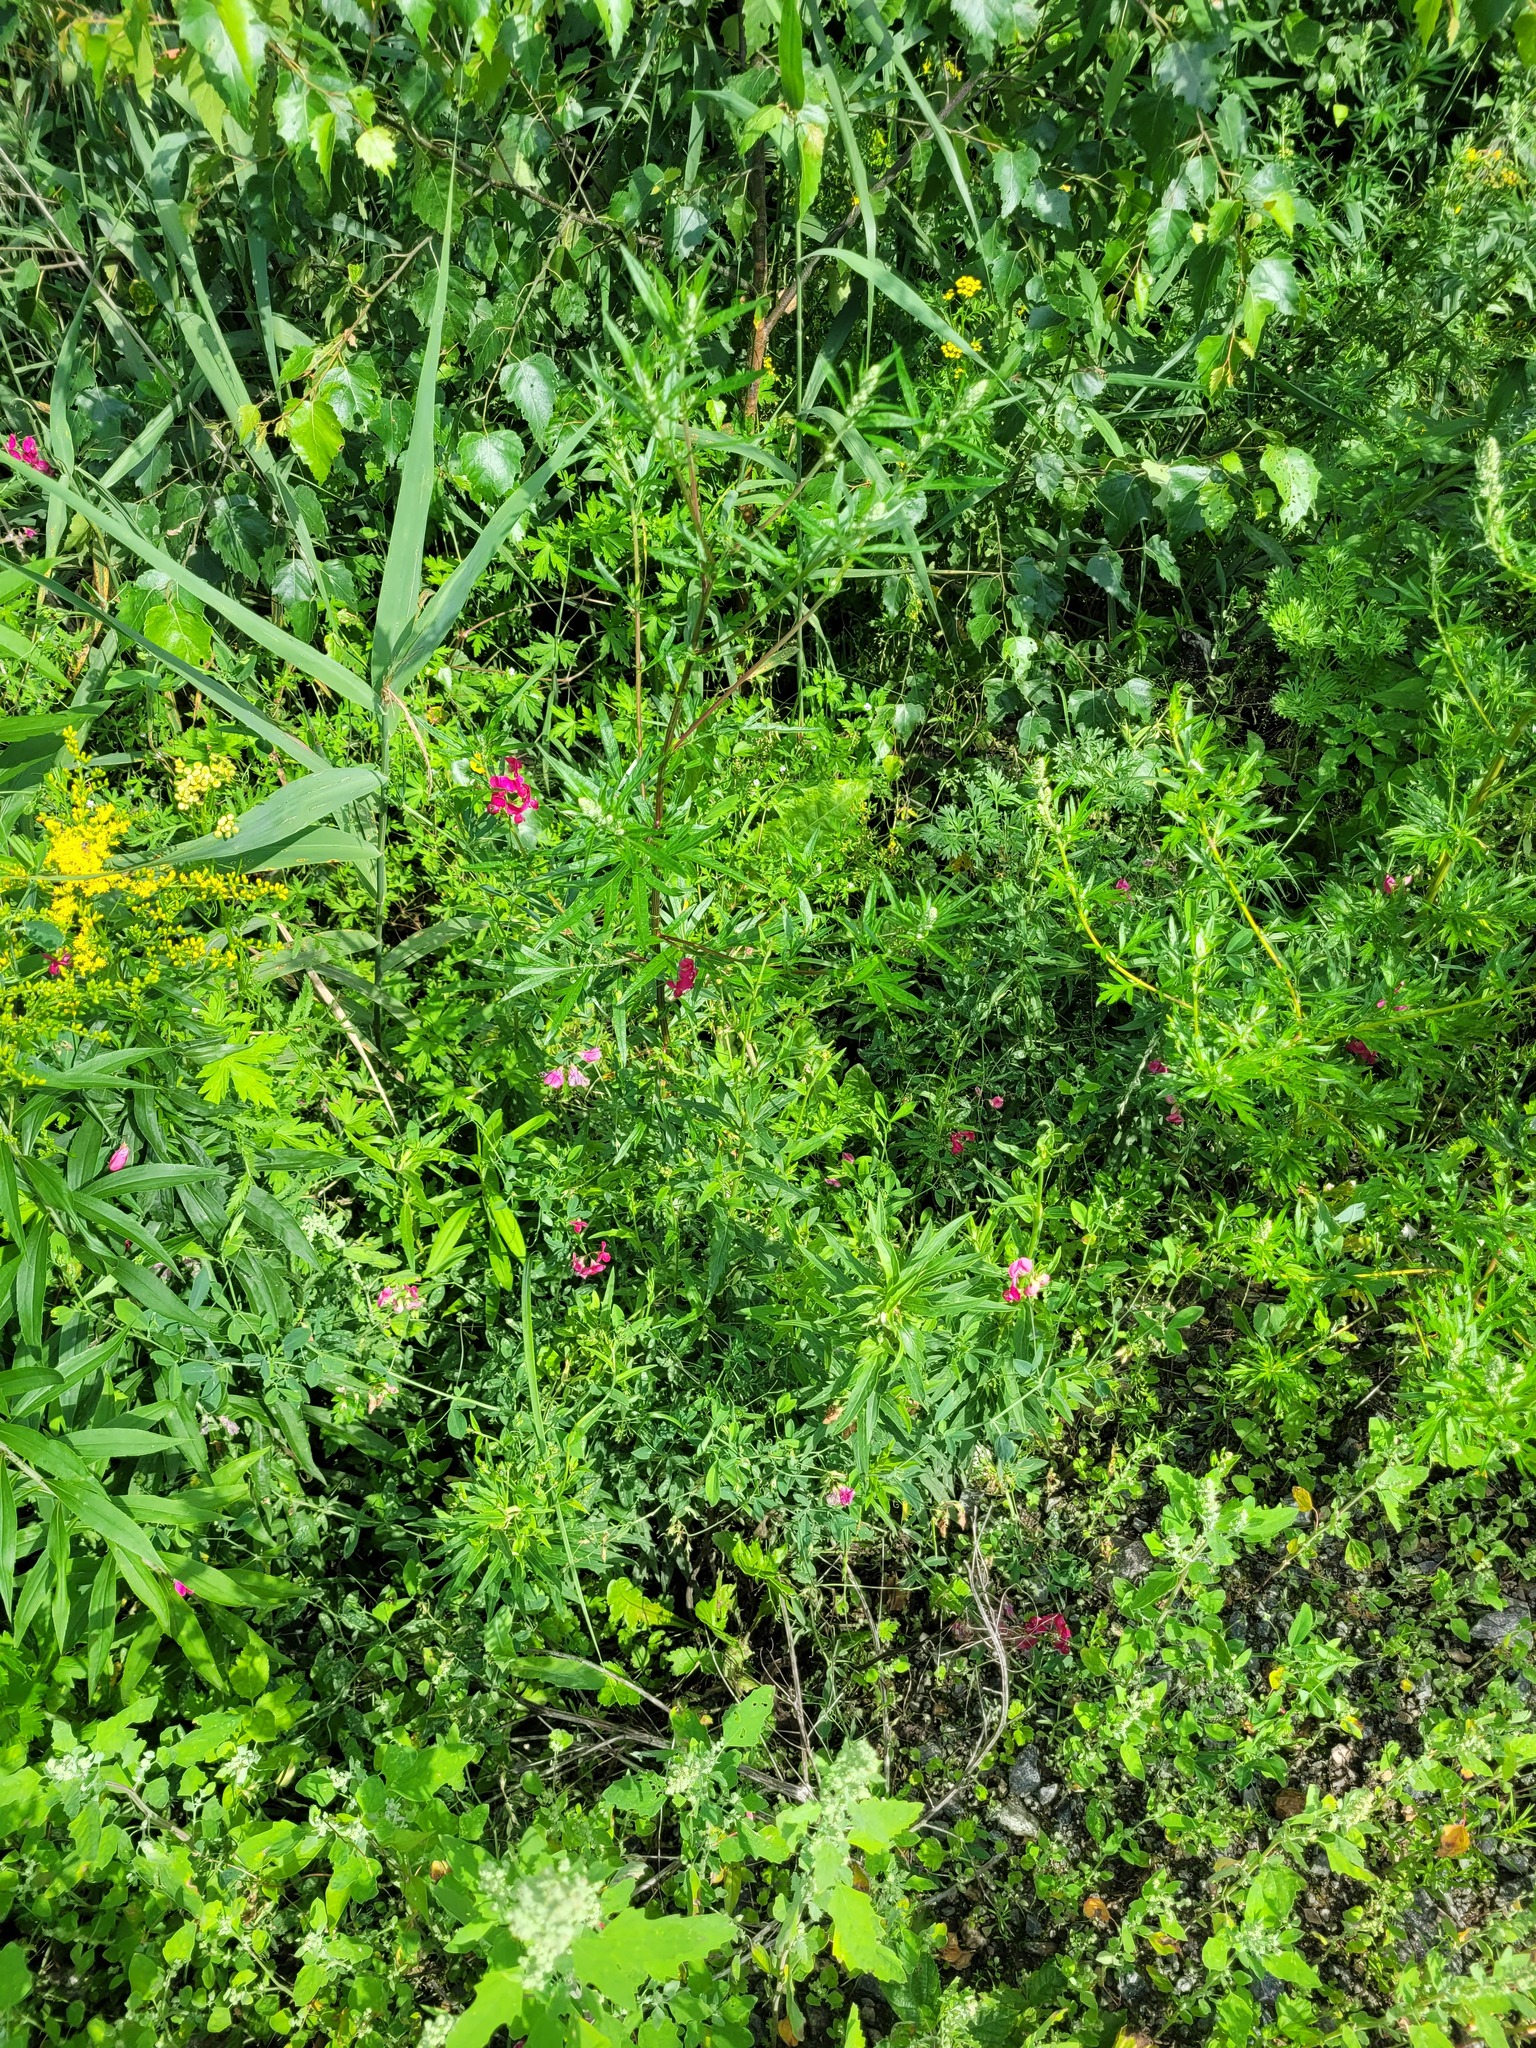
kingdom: Plantae
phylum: Tracheophyta
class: Magnoliopsida
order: Fabales
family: Fabaceae
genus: Lathyrus
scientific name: Lathyrus tuberosus
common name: Tuberous pea
